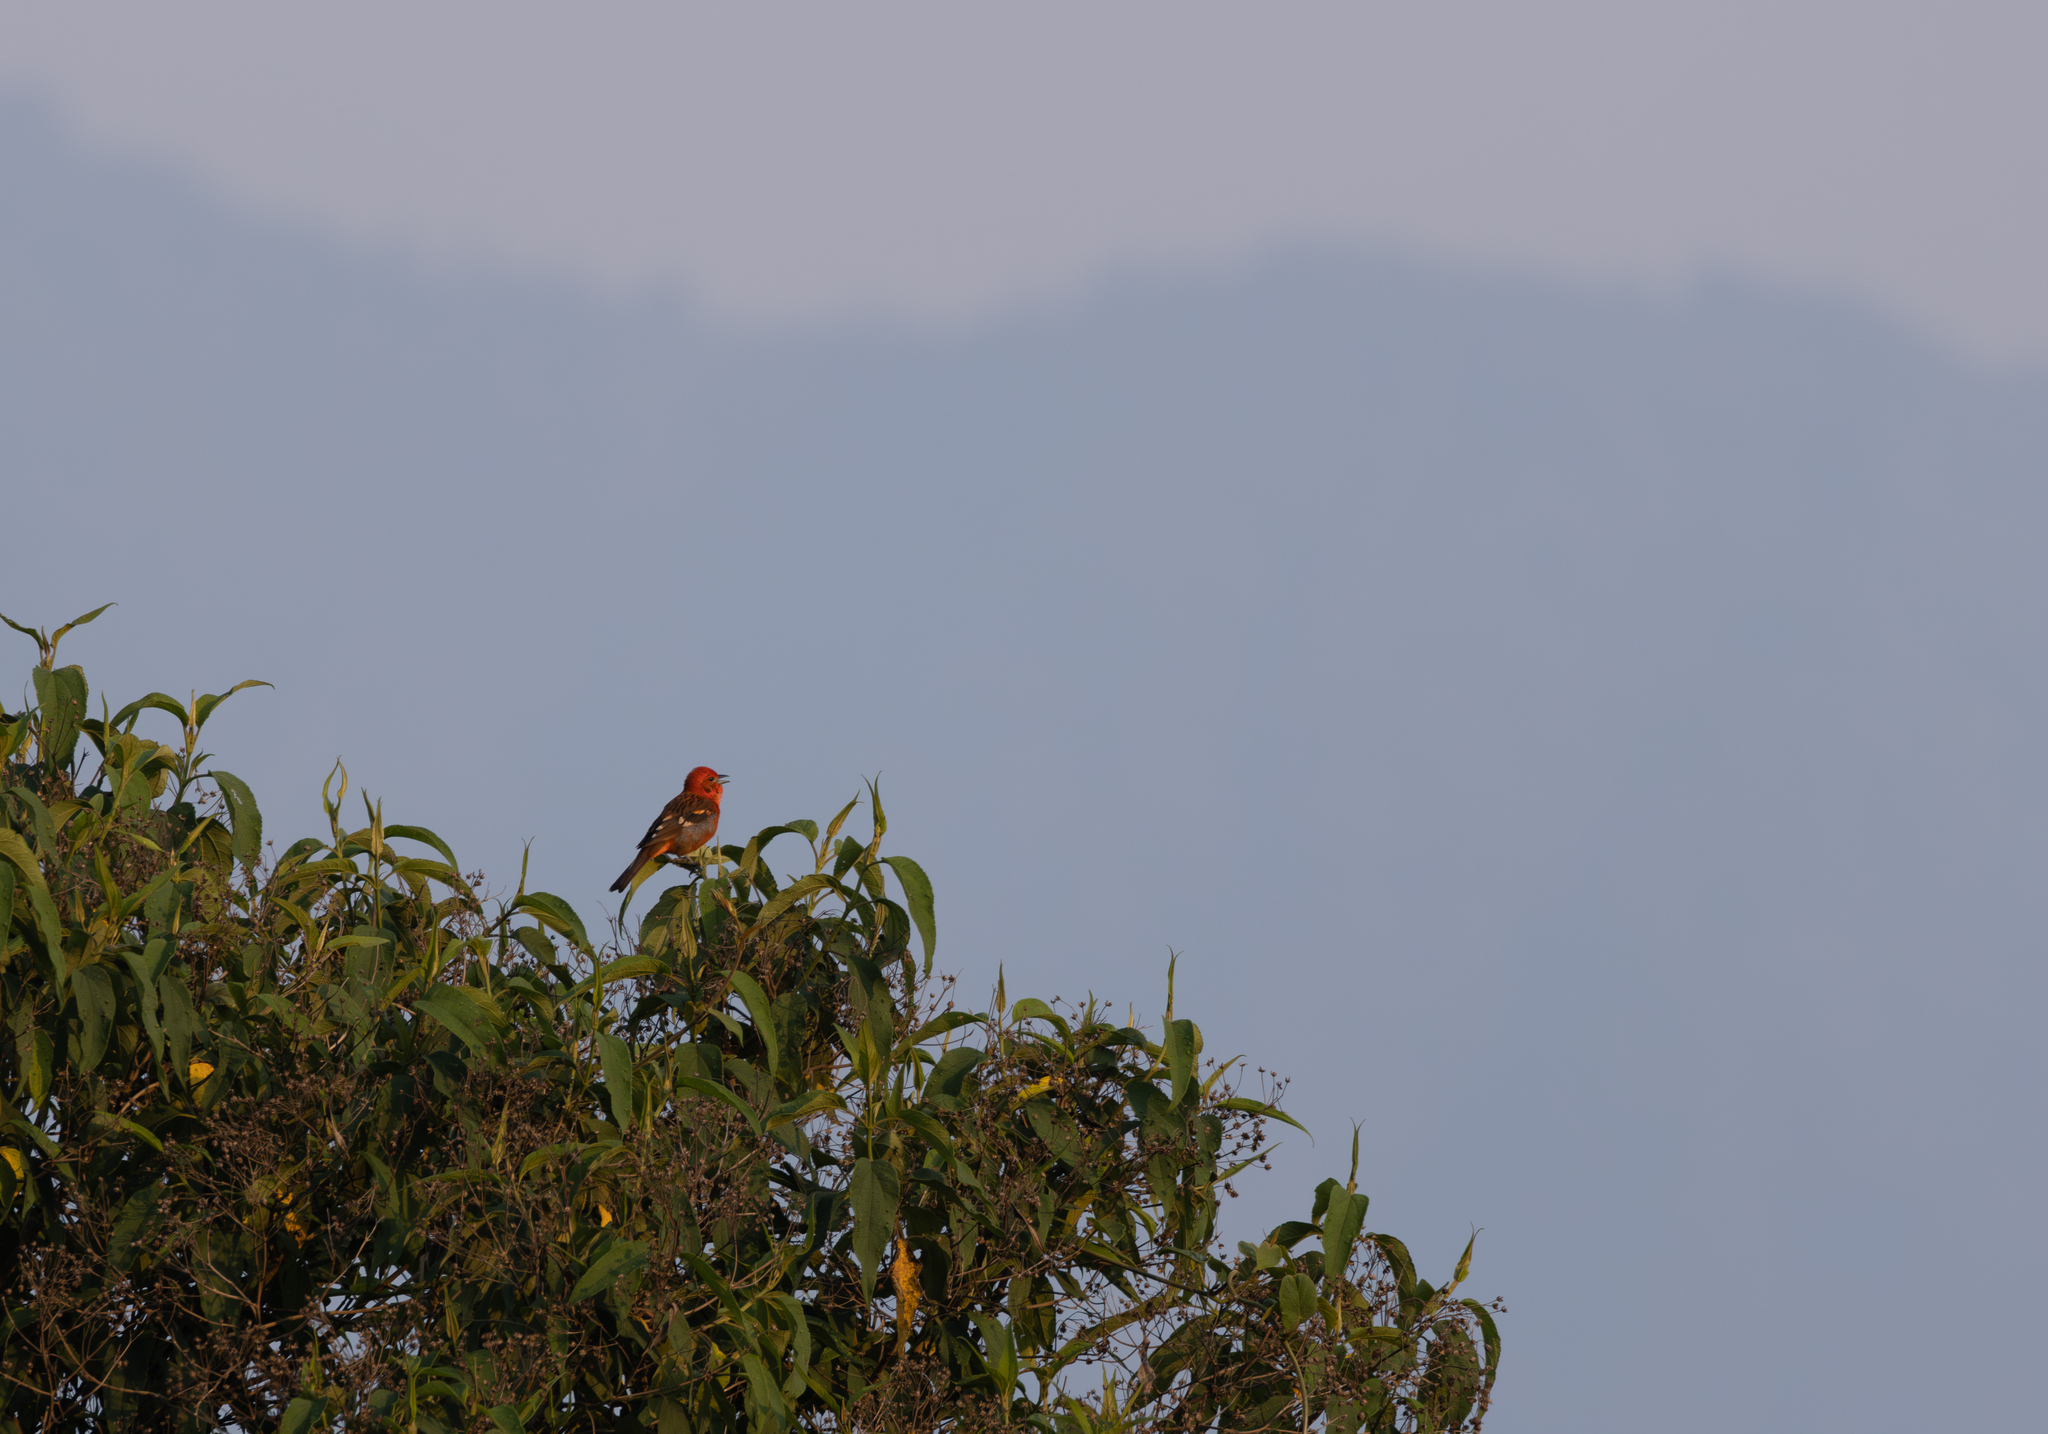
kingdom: Animalia
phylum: Chordata
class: Aves
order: Passeriformes
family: Cardinalidae
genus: Piranga
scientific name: Piranga bidentata
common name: Flame-colored tanager
